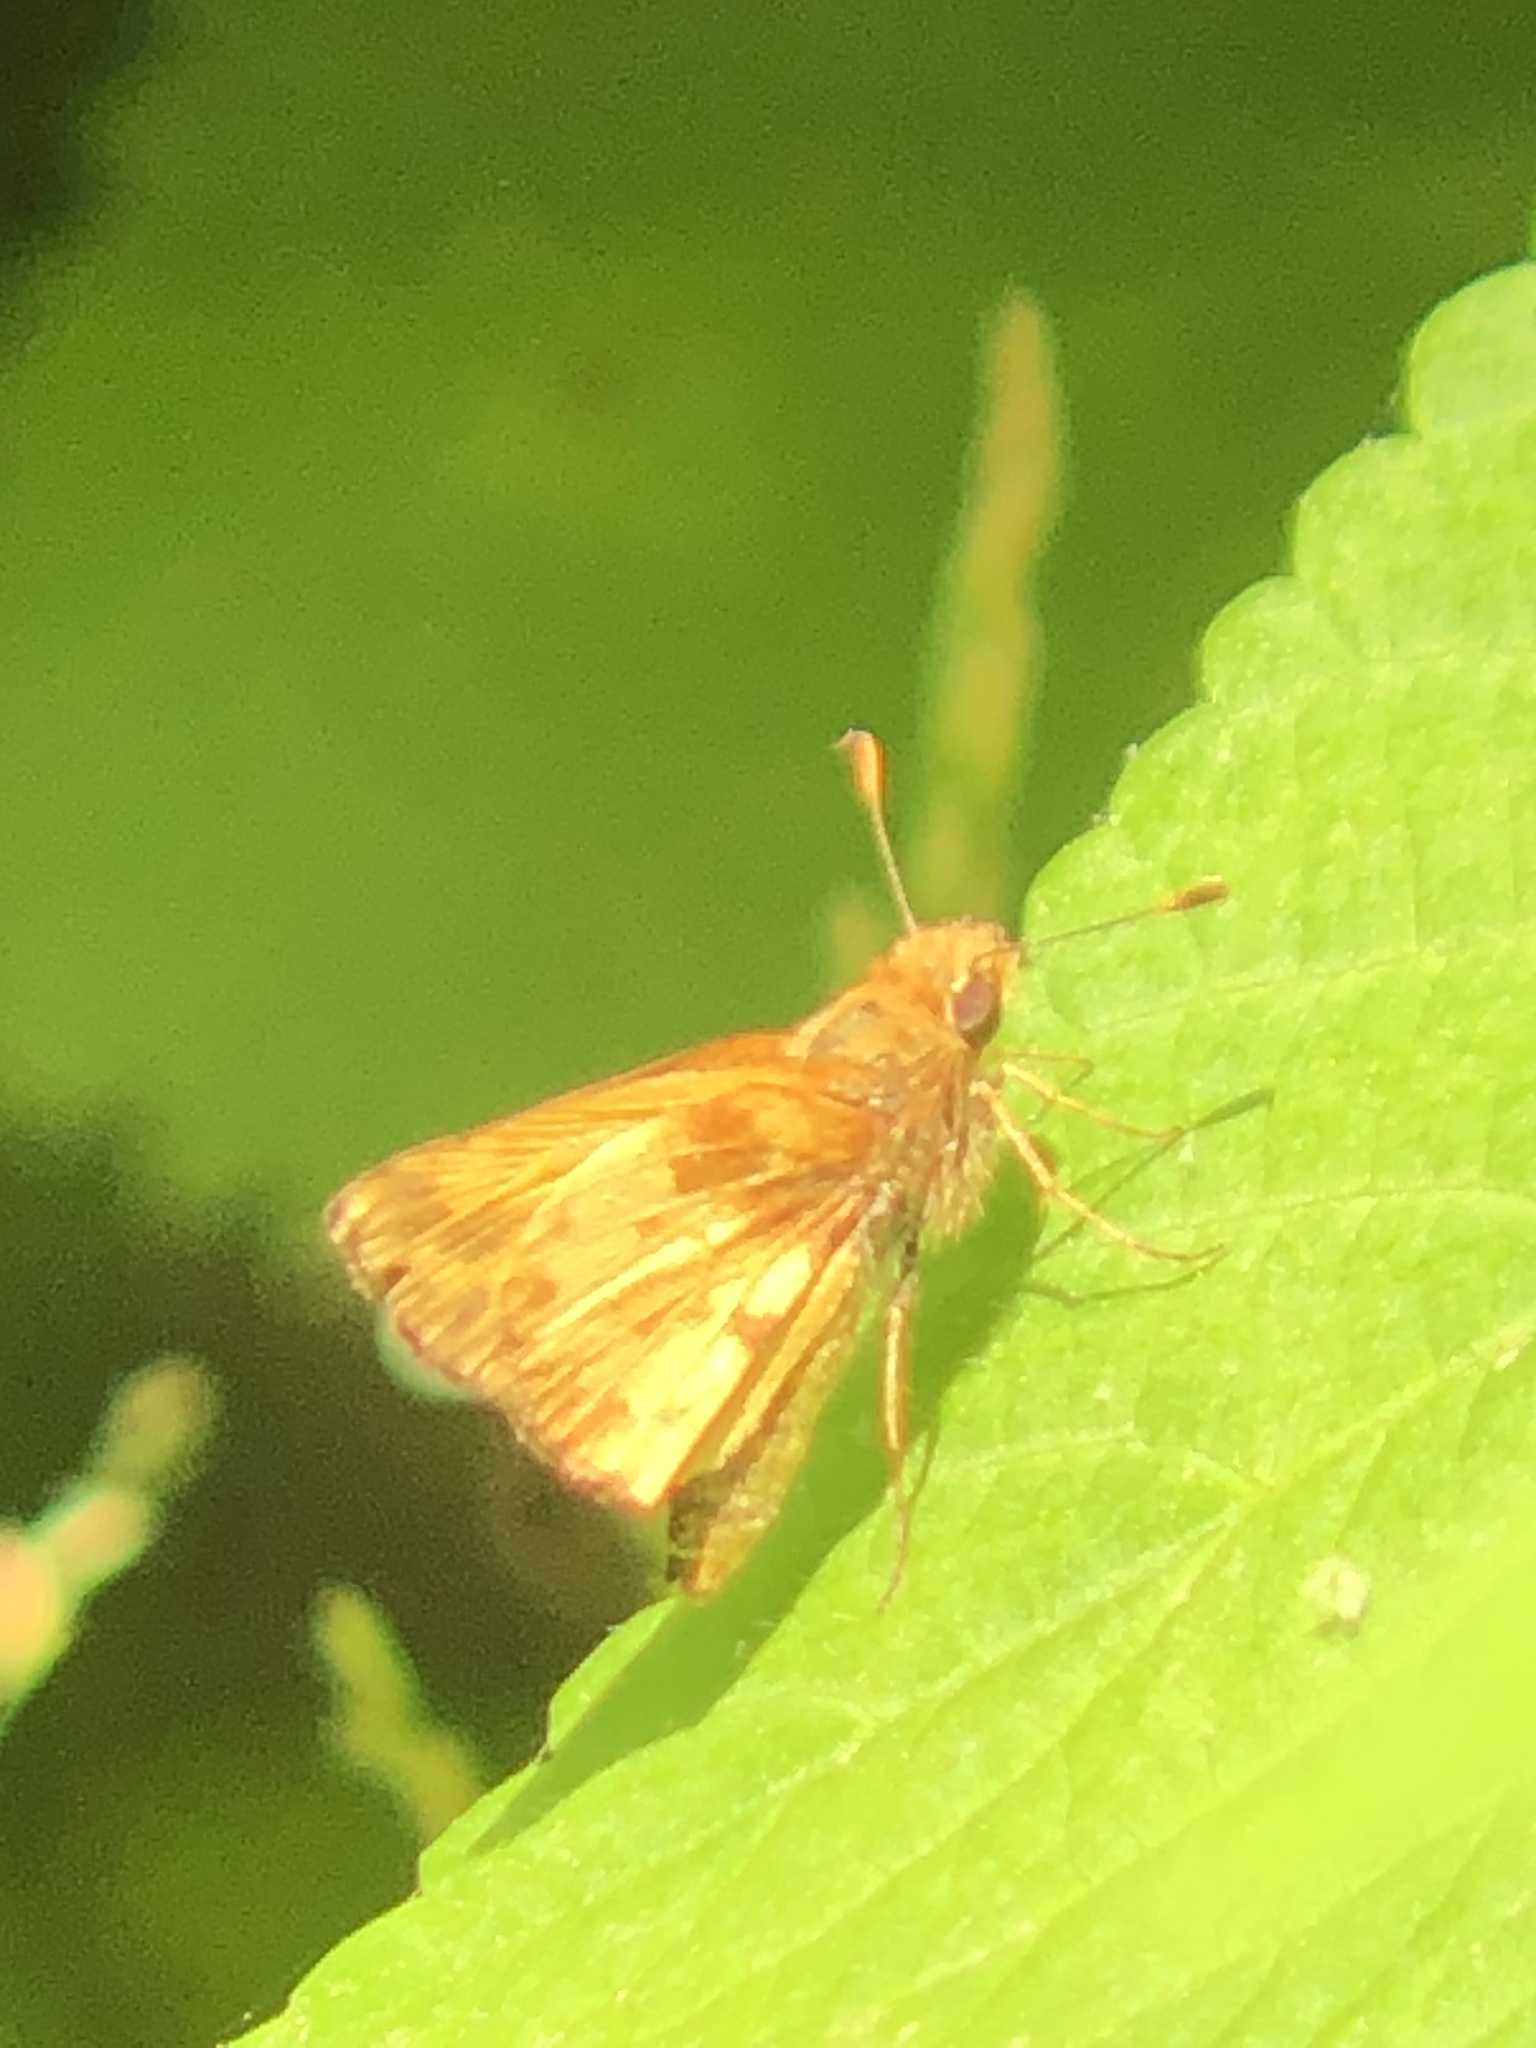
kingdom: Animalia
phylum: Arthropoda
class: Insecta
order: Lepidoptera
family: Hesperiidae
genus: Lon
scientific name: Lon zabulon
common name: Zabulon skipper
